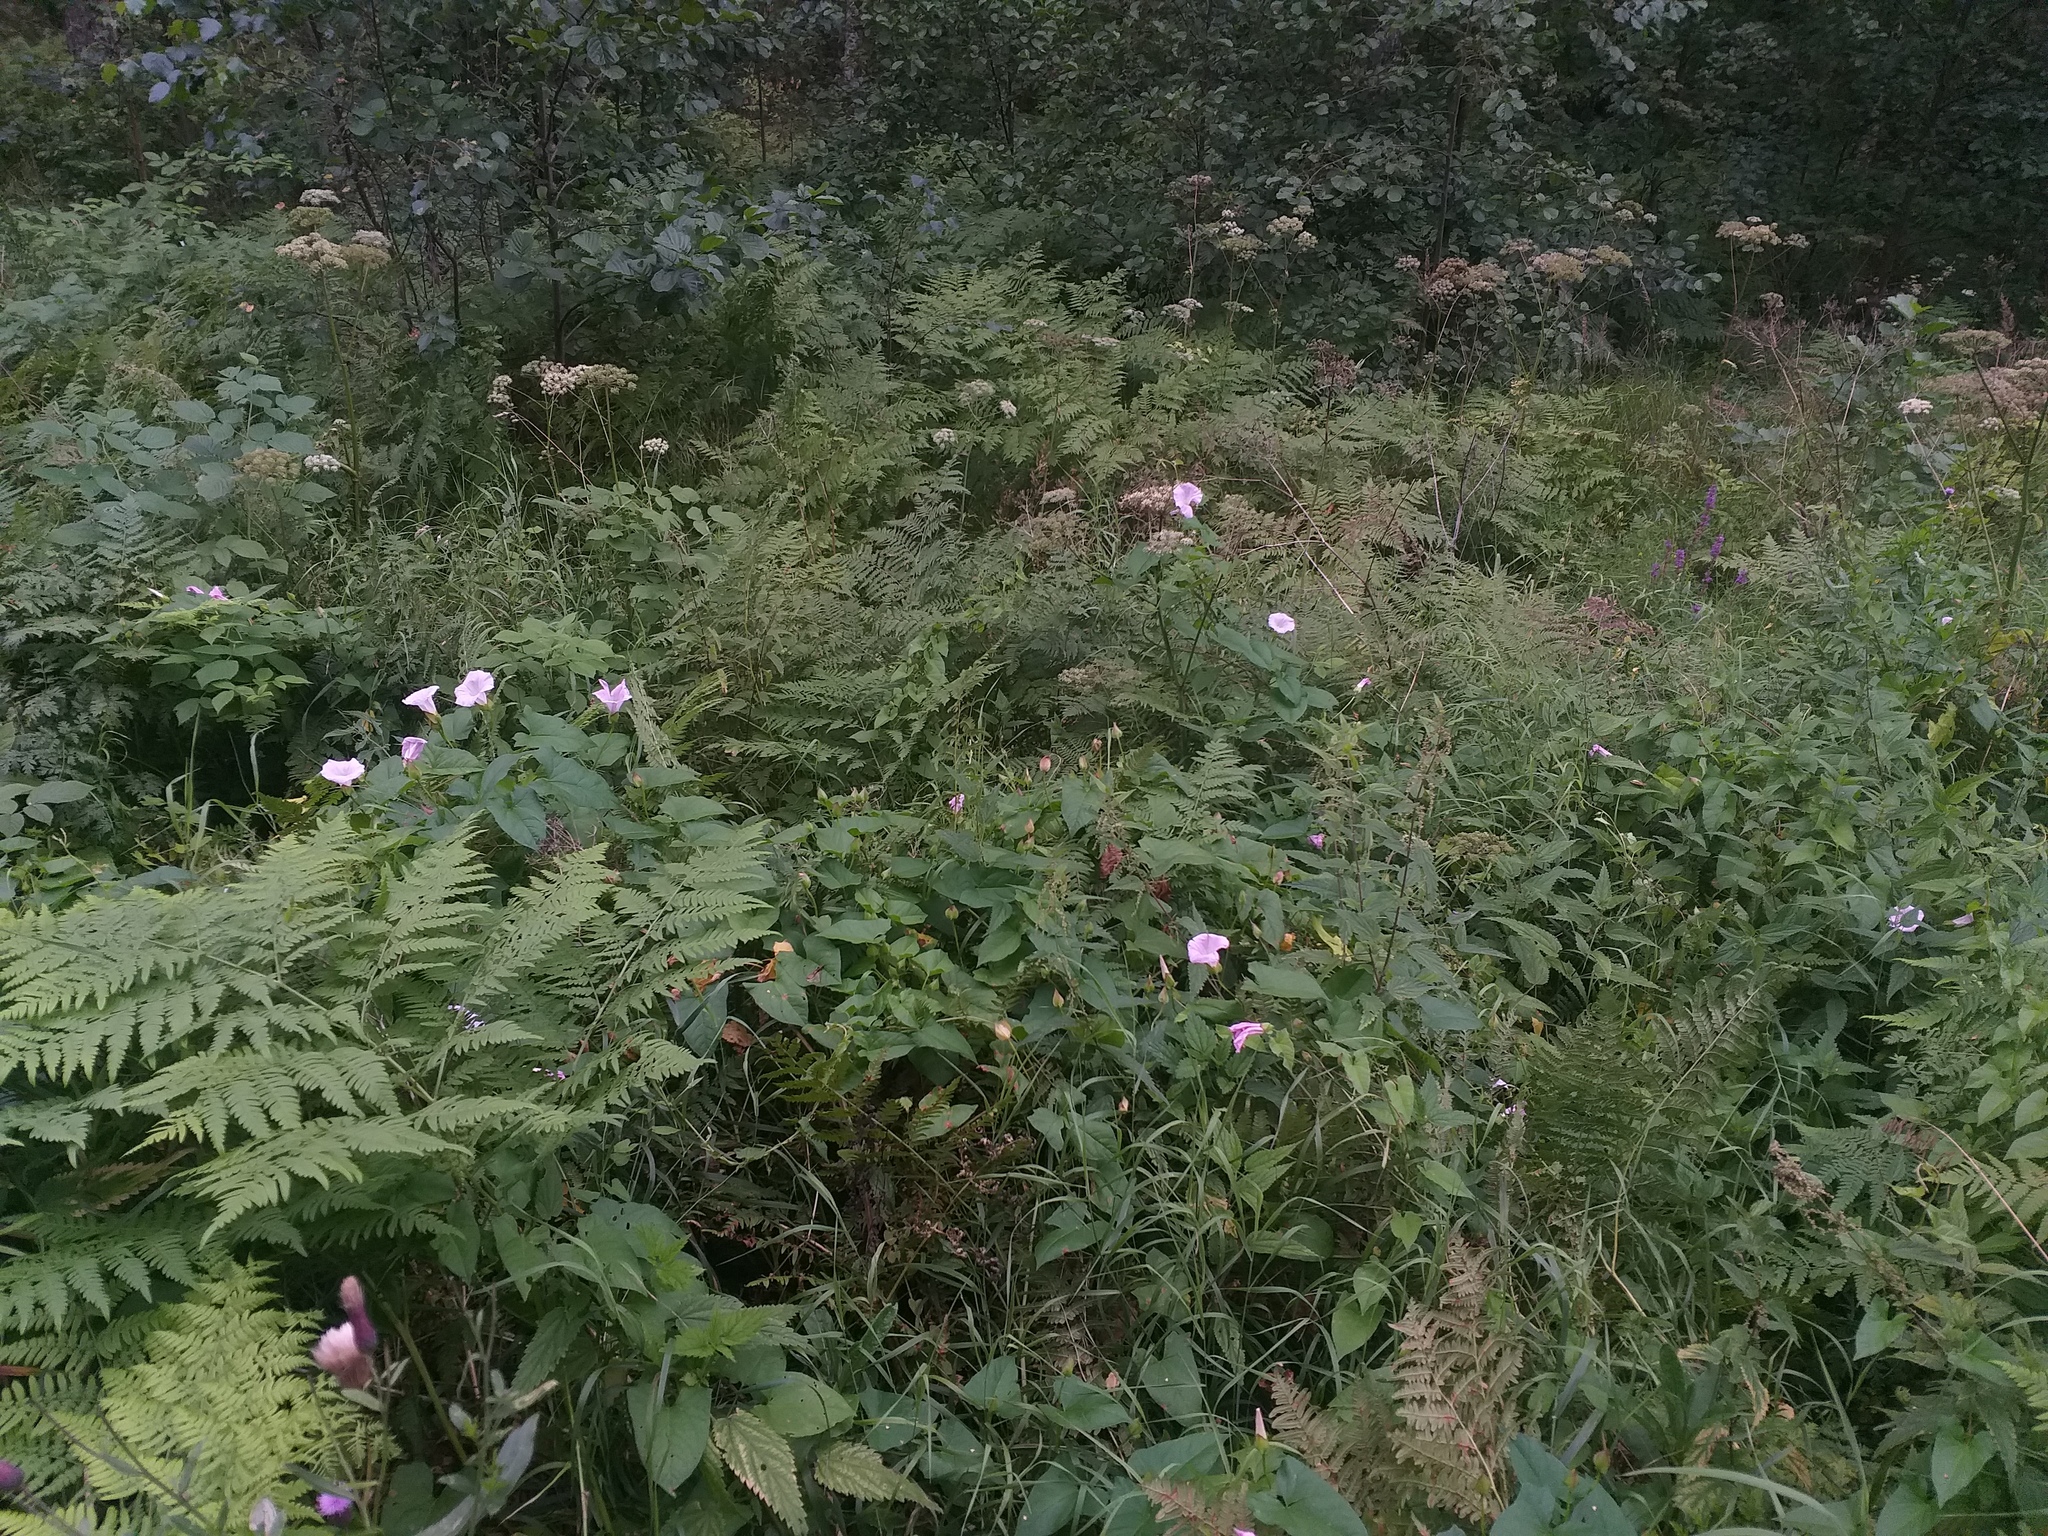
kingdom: Plantae
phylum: Tracheophyta
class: Magnoliopsida
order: Solanales
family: Convolvulaceae
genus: Calystegia
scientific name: Calystegia sepium
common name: Hedge bindweed
